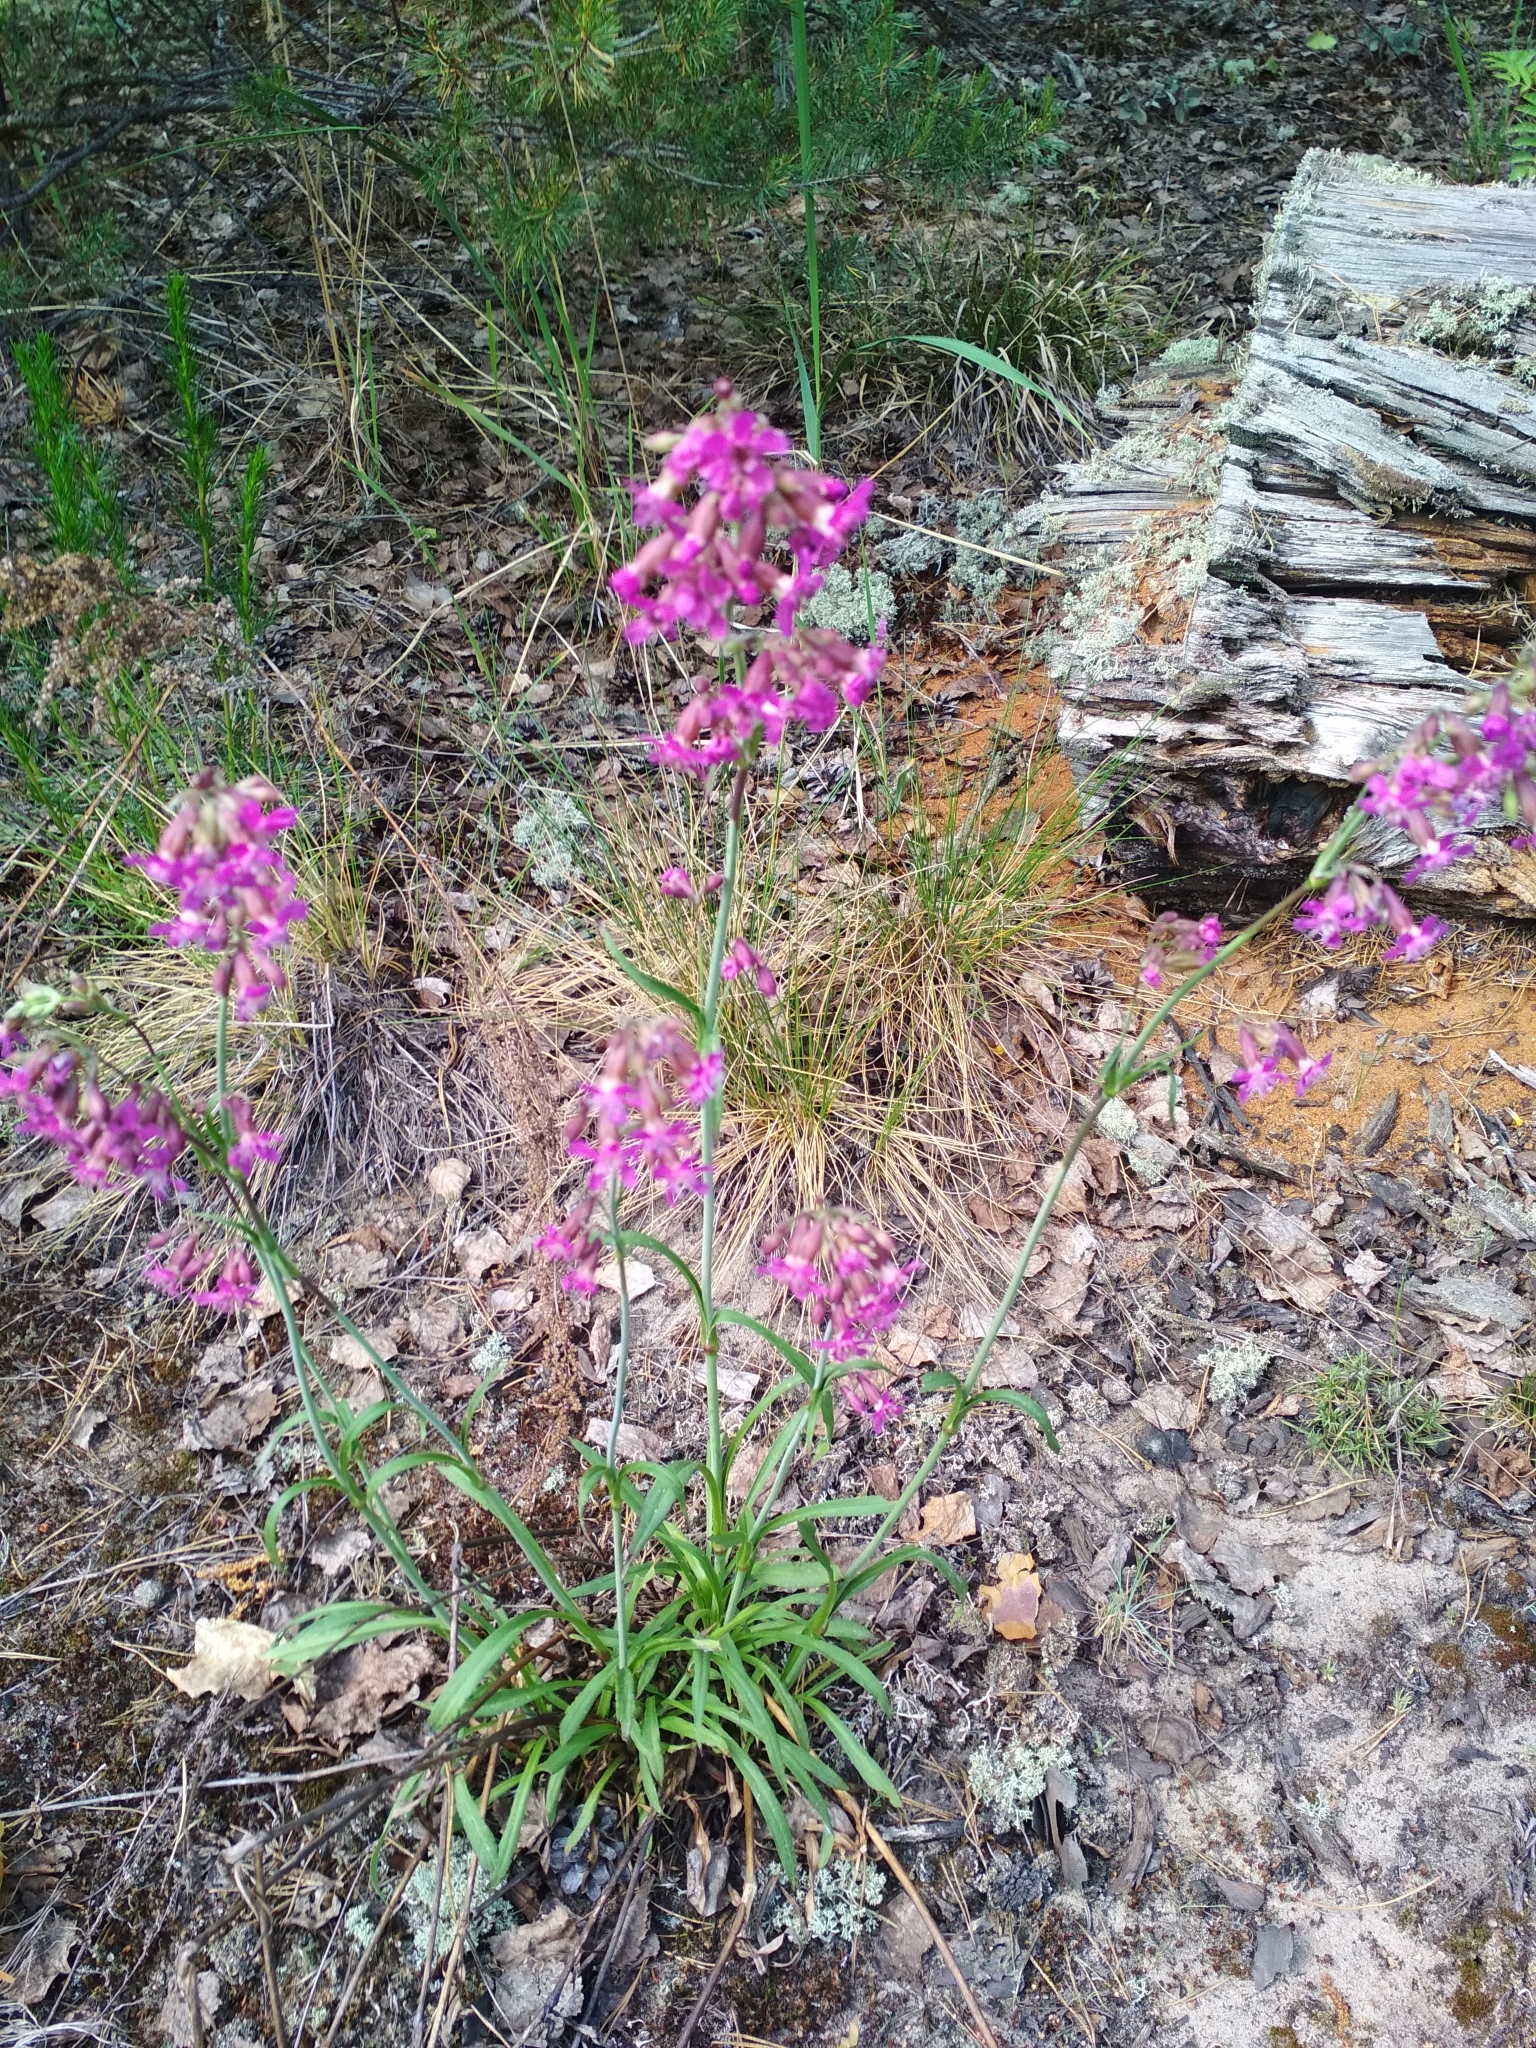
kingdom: Plantae
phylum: Tracheophyta
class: Magnoliopsida
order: Caryophyllales
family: Caryophyllaceae
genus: Viscaria
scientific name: Viscaria vulgaris
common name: Clammy campion
